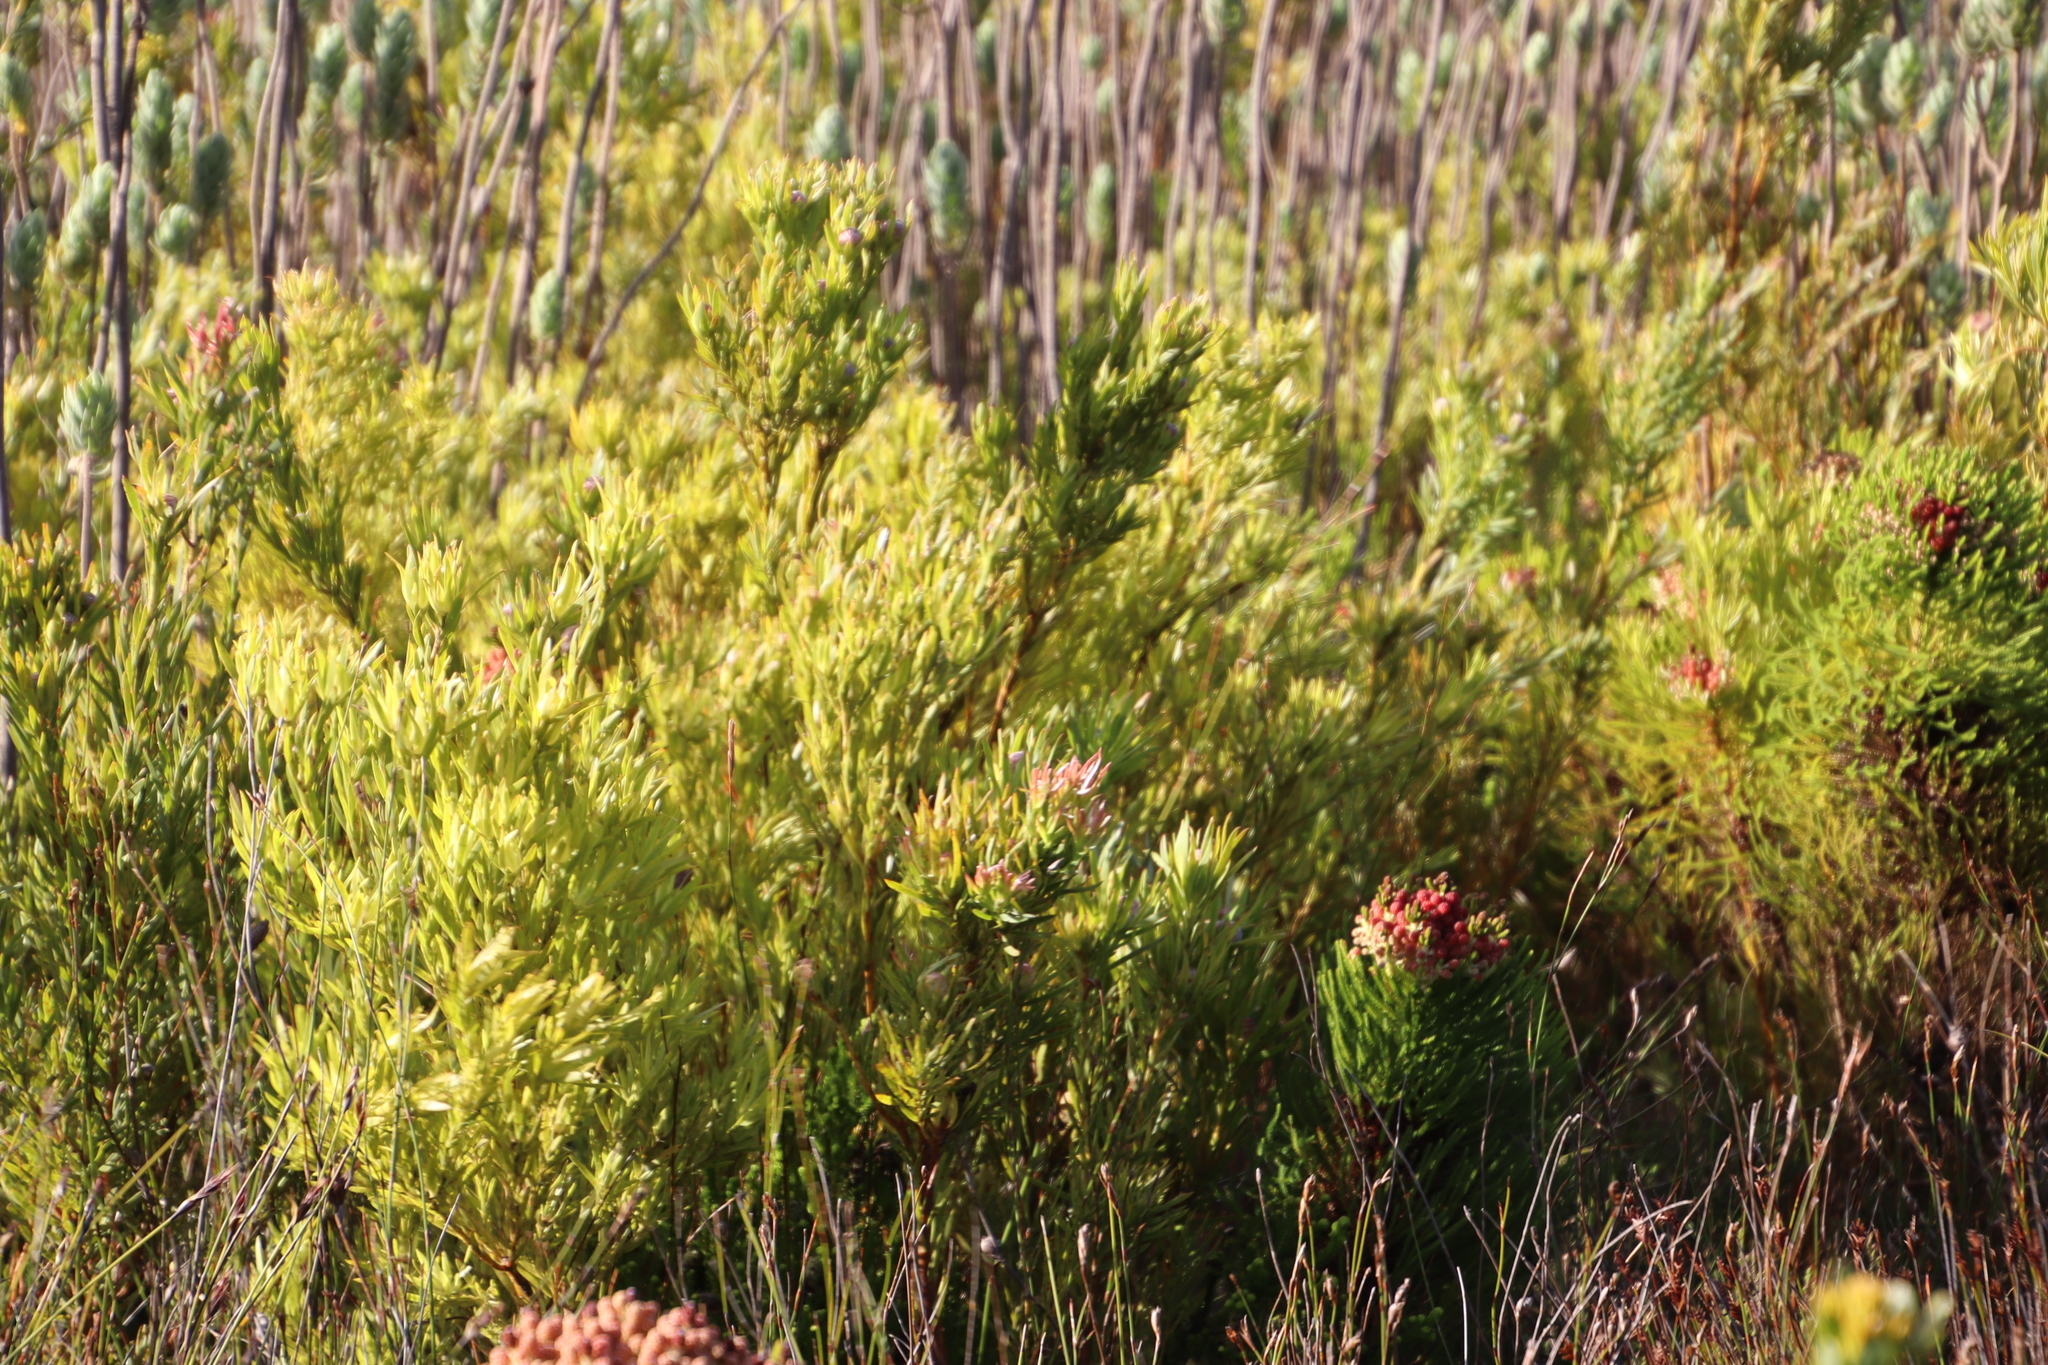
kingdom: Plantae
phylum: Tracheophyta
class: Magnoliopsida
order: Proteales
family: Proteaceae
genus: Leucadendron
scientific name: Leucadendron xanthoconus
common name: Sickle-leaf conebush
